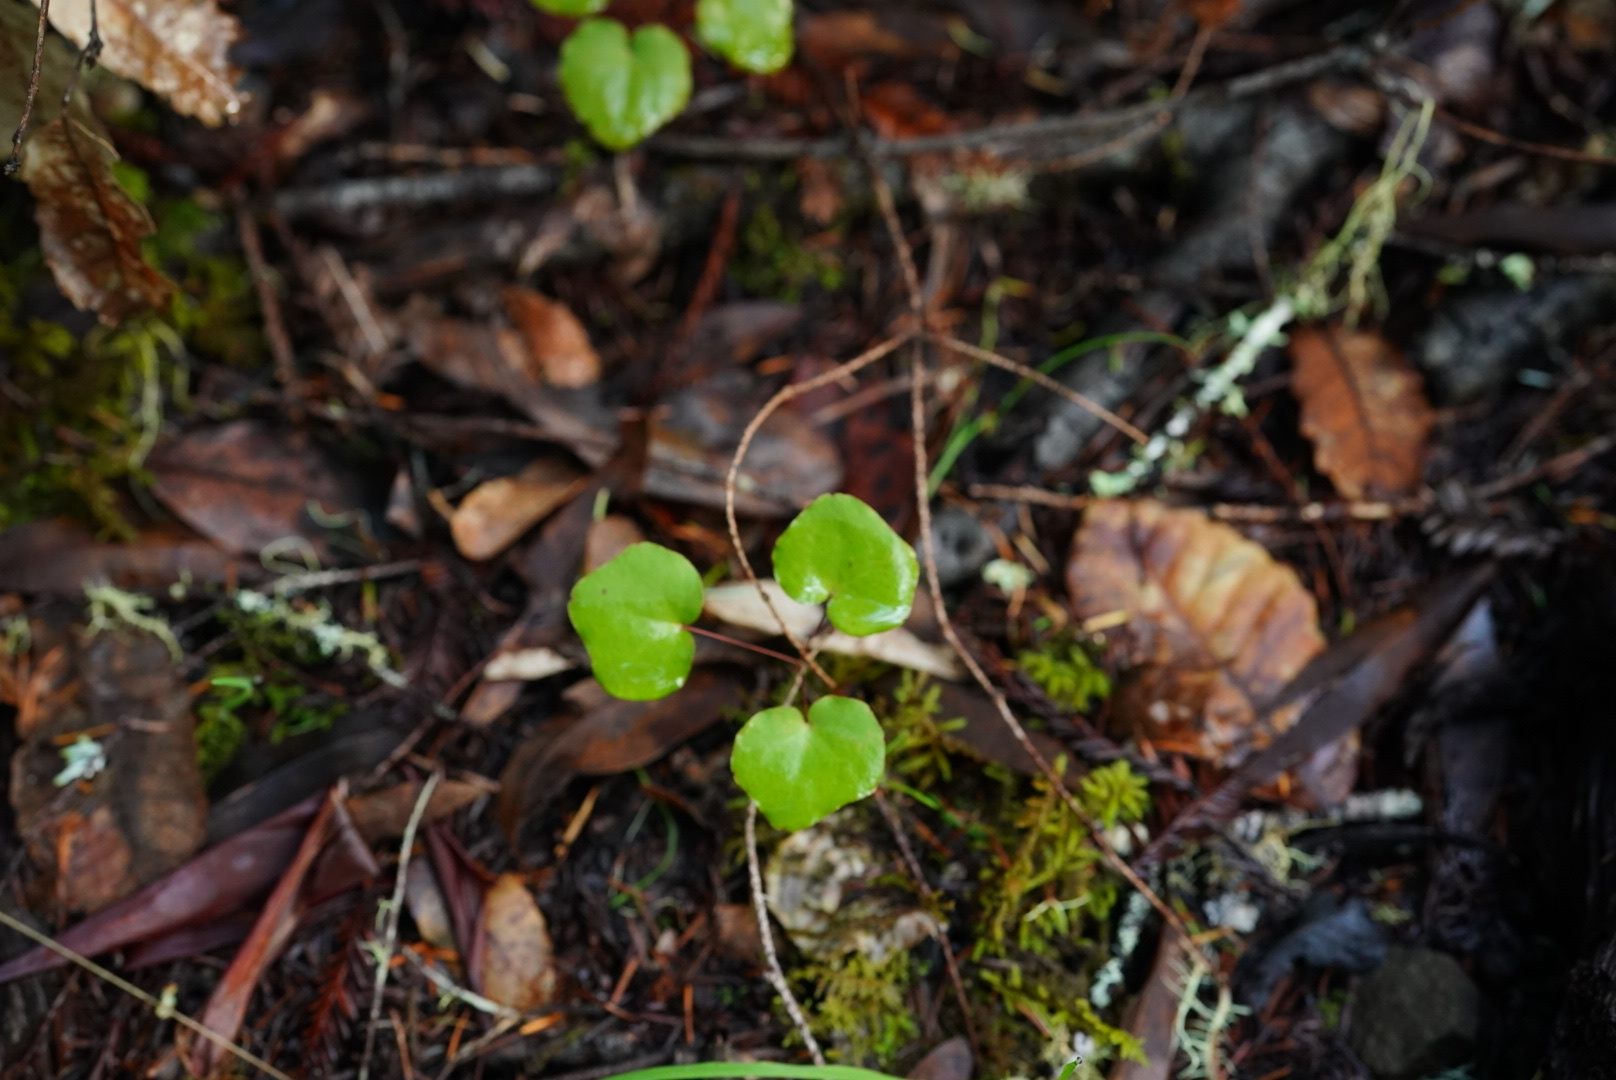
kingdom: Plantae
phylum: Tracheophyta
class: Magnoliopsida
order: Ranunculales
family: Berberidaceae
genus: Vancouveria
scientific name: Vancouveria planipetala
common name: Redwood-ivy
